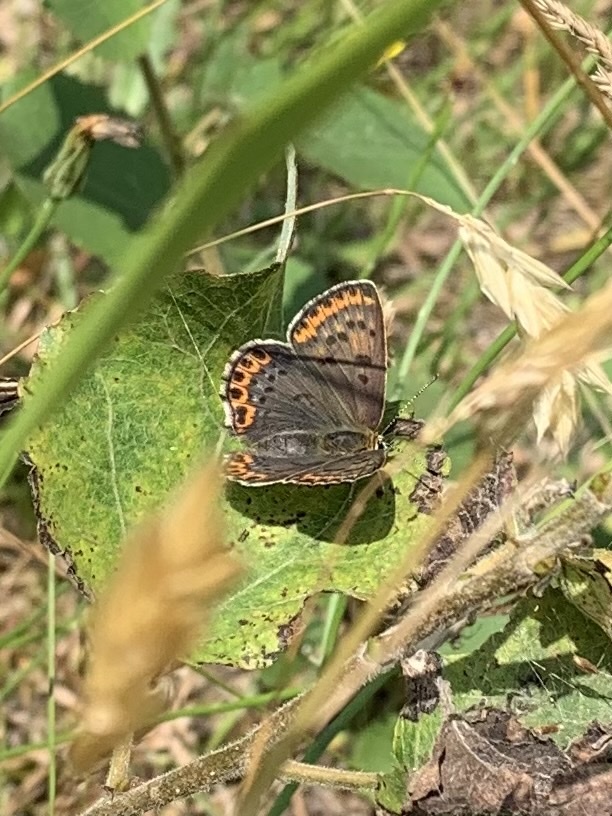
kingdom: Animalia
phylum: Arthropoda
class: Insecta
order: Lepidoptera
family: Lycaenidae
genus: Loweia
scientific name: Loweia tityrus
